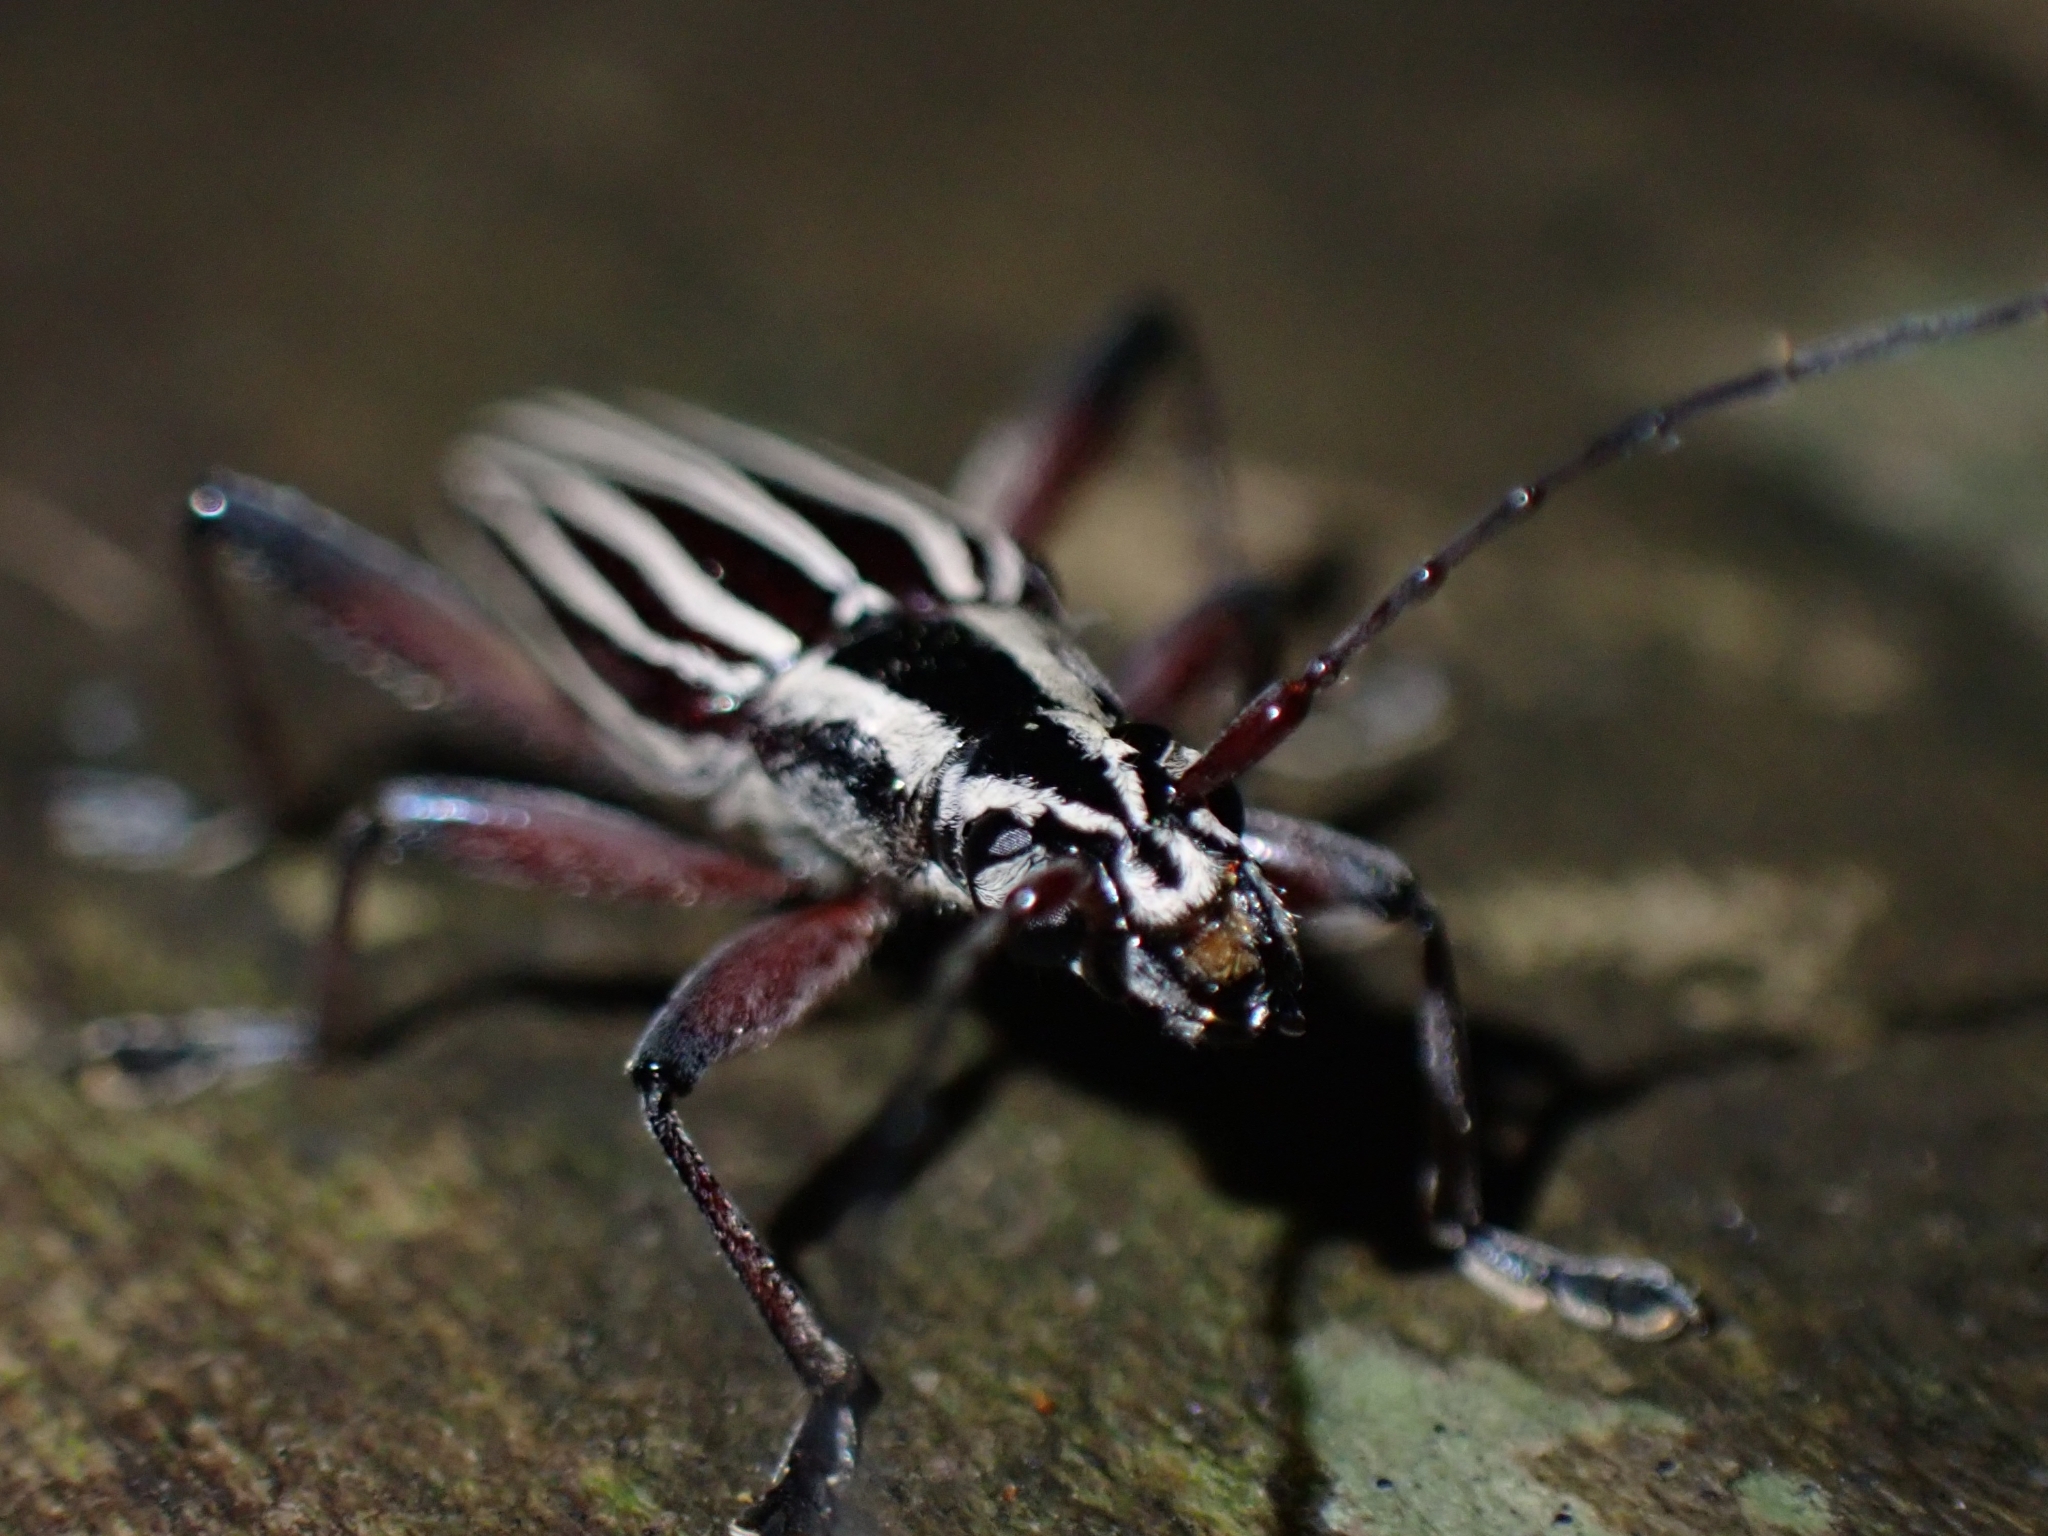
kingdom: Animalia
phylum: Arthropoda
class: Insecta
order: Coleoptera
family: Cerambycidae
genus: Coptomma
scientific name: Coptomma lineatum
